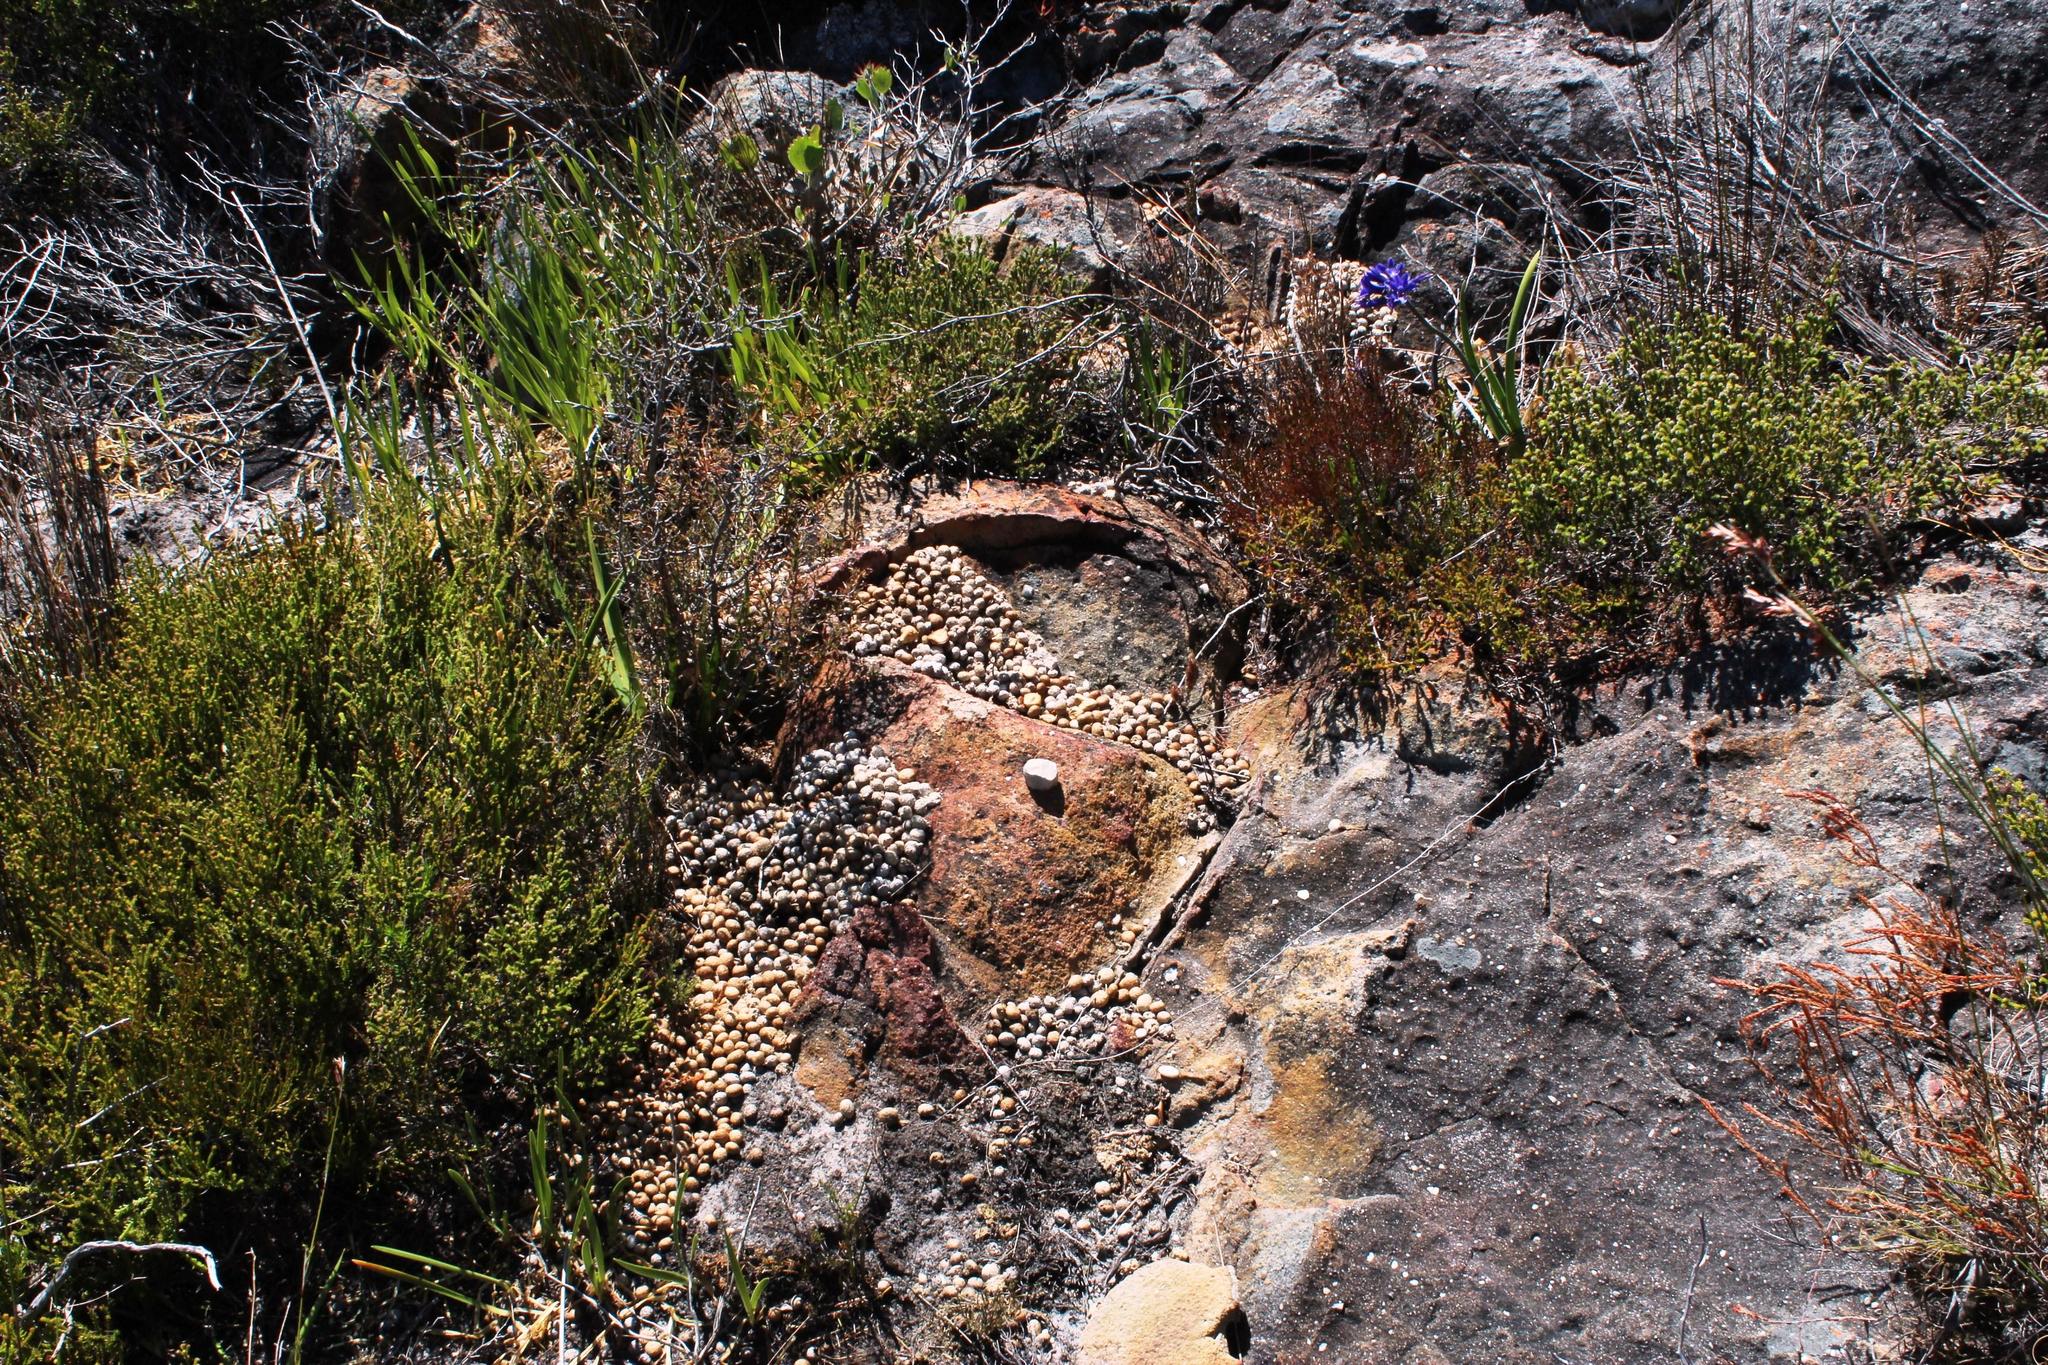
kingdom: Animalia
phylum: Chordata
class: Mammalia
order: Lagomorpha
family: Leporidae
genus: Pronolagus
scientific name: Pronolagus saundersiae
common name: Hewitt's red rock hare
